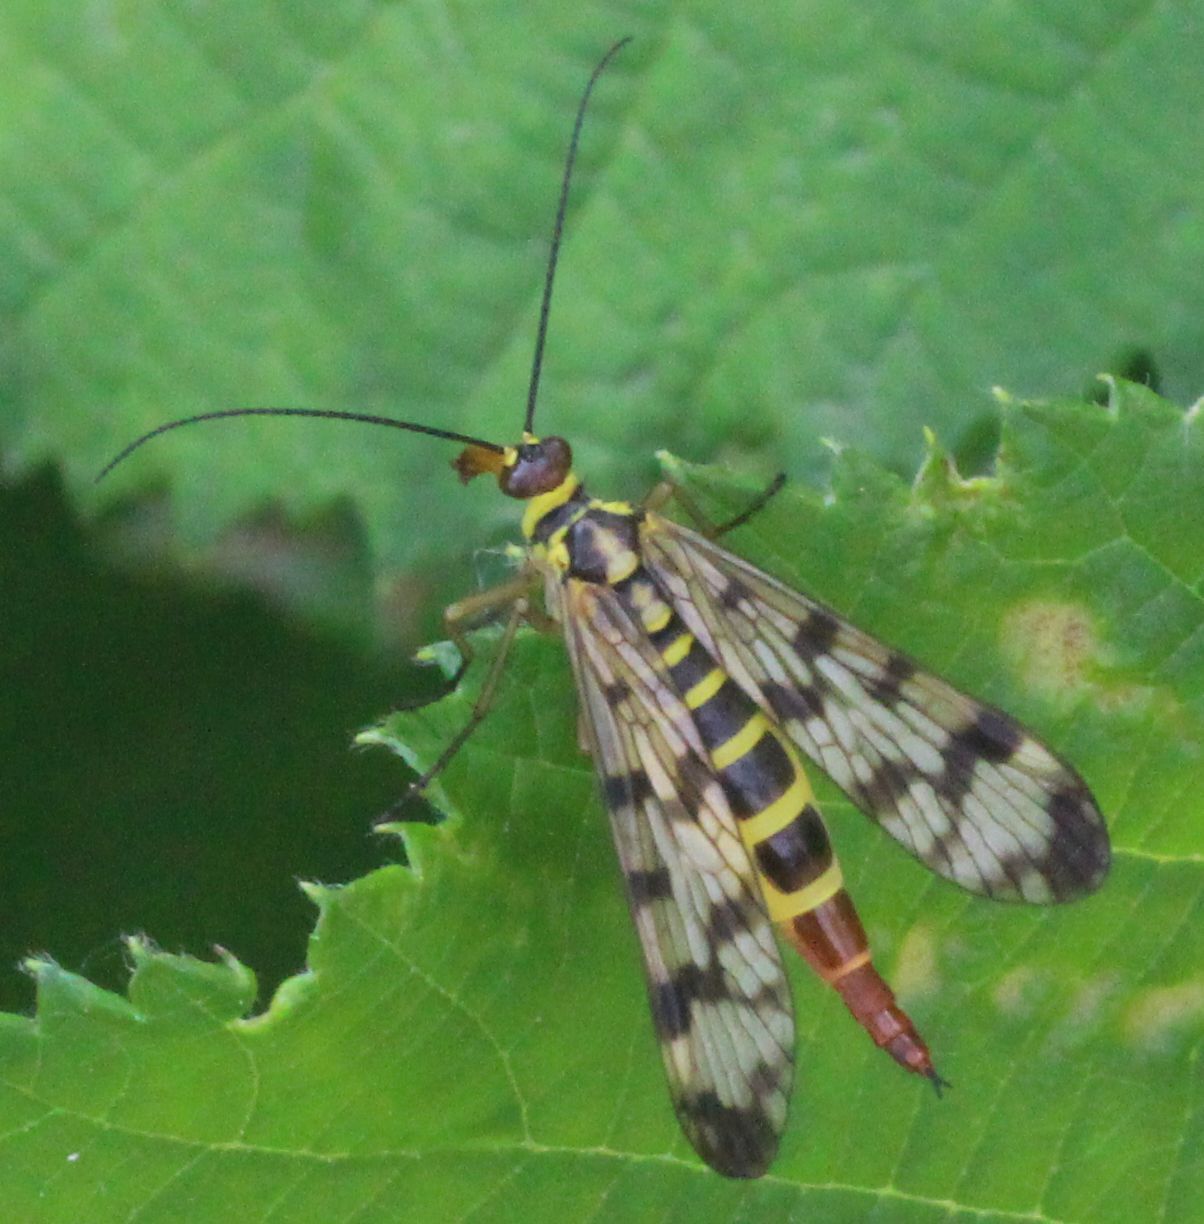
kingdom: Animalia
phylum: Arthropoda
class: Insecta
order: Mecoptera
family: Panorpidae
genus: Panorpa
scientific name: Panorpa communis
